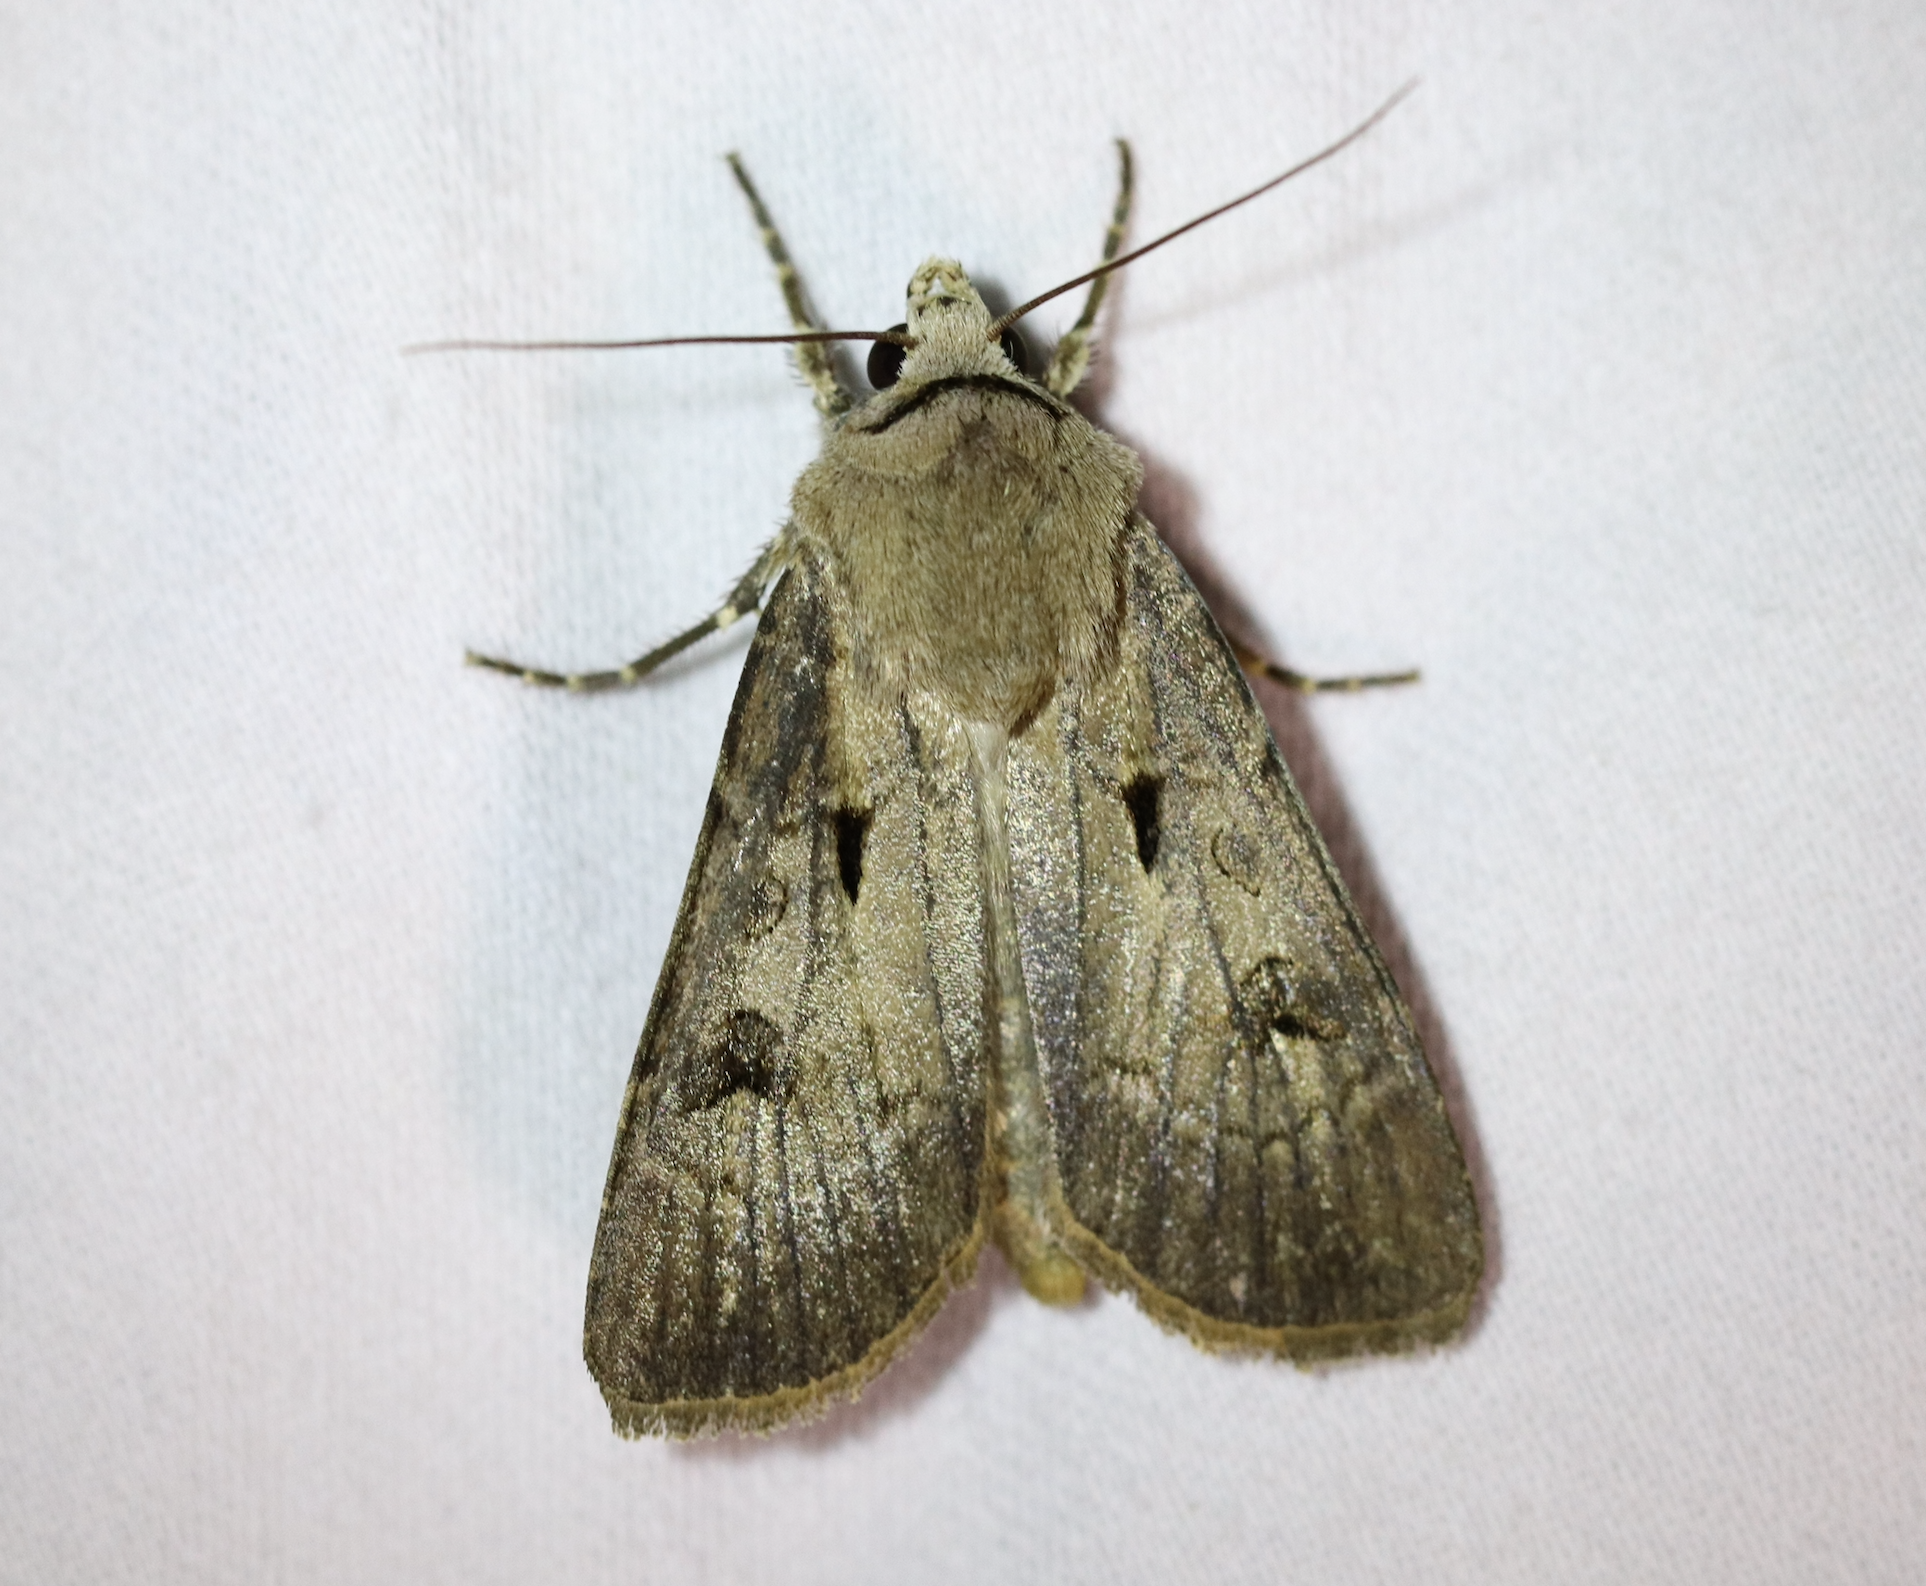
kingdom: Animalia
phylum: Arthropoda
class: Insecta
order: Lepidoptera
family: Noctuidae
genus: Agrotis
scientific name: Agrotis exclamationis
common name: Heart and dart
